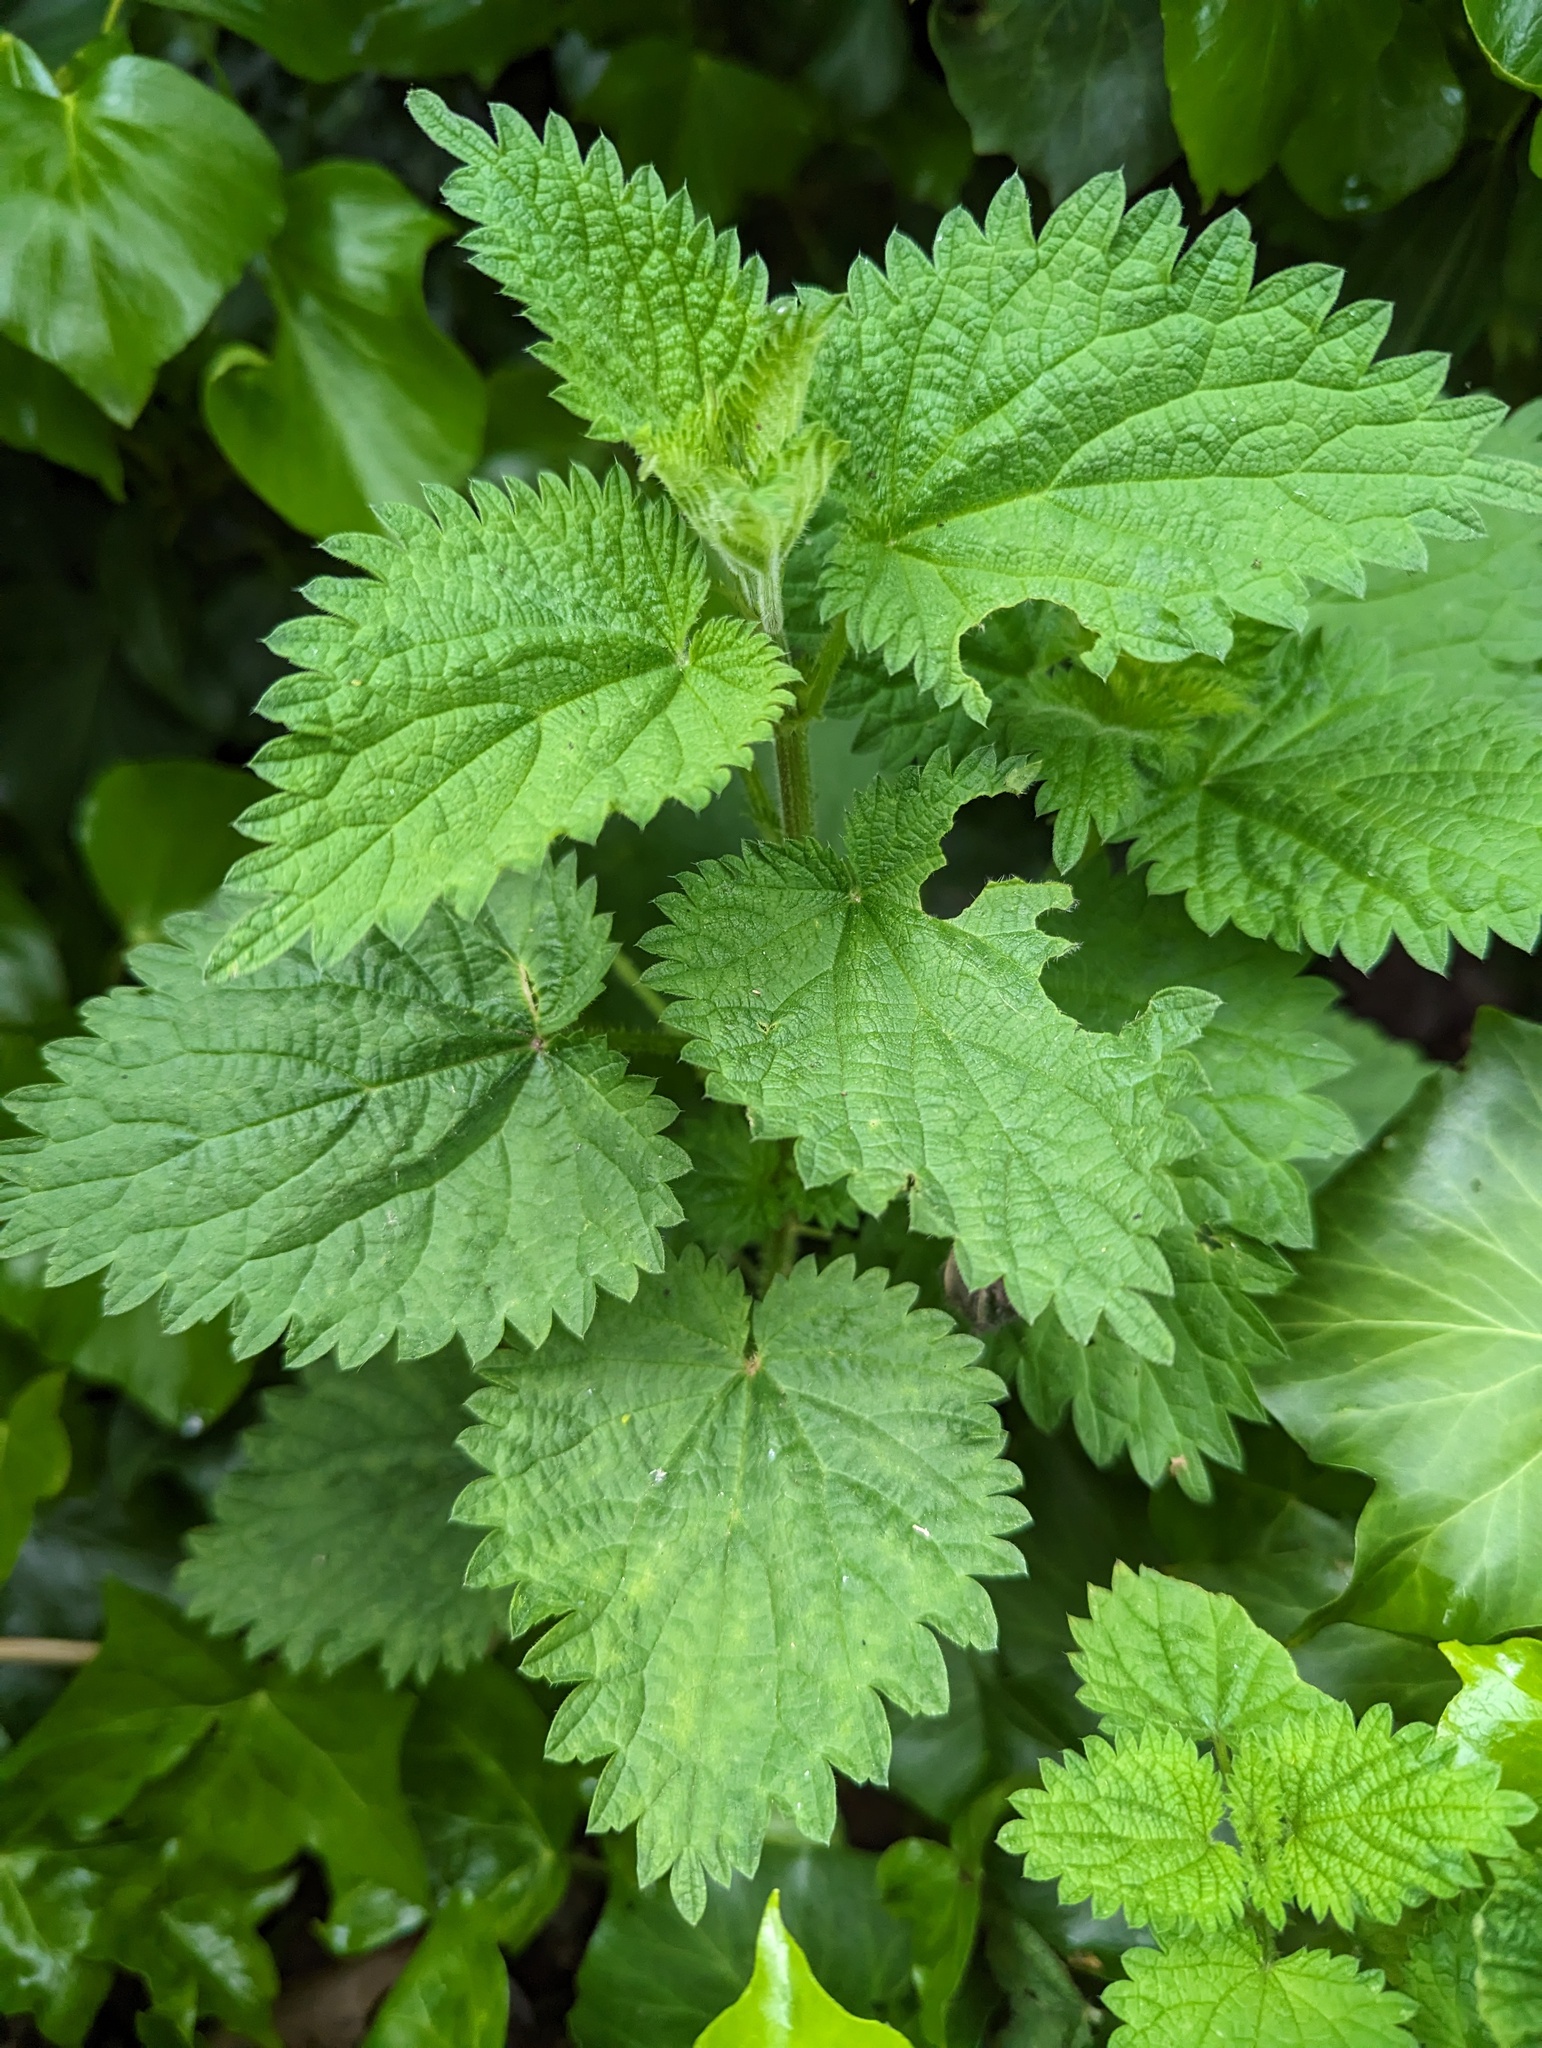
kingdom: Plantae
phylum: Tracheophyta
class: Magnoliopsida
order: Rosales
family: Urticaceae
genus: Urtica
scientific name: Urtica dioica
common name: Common nettle
